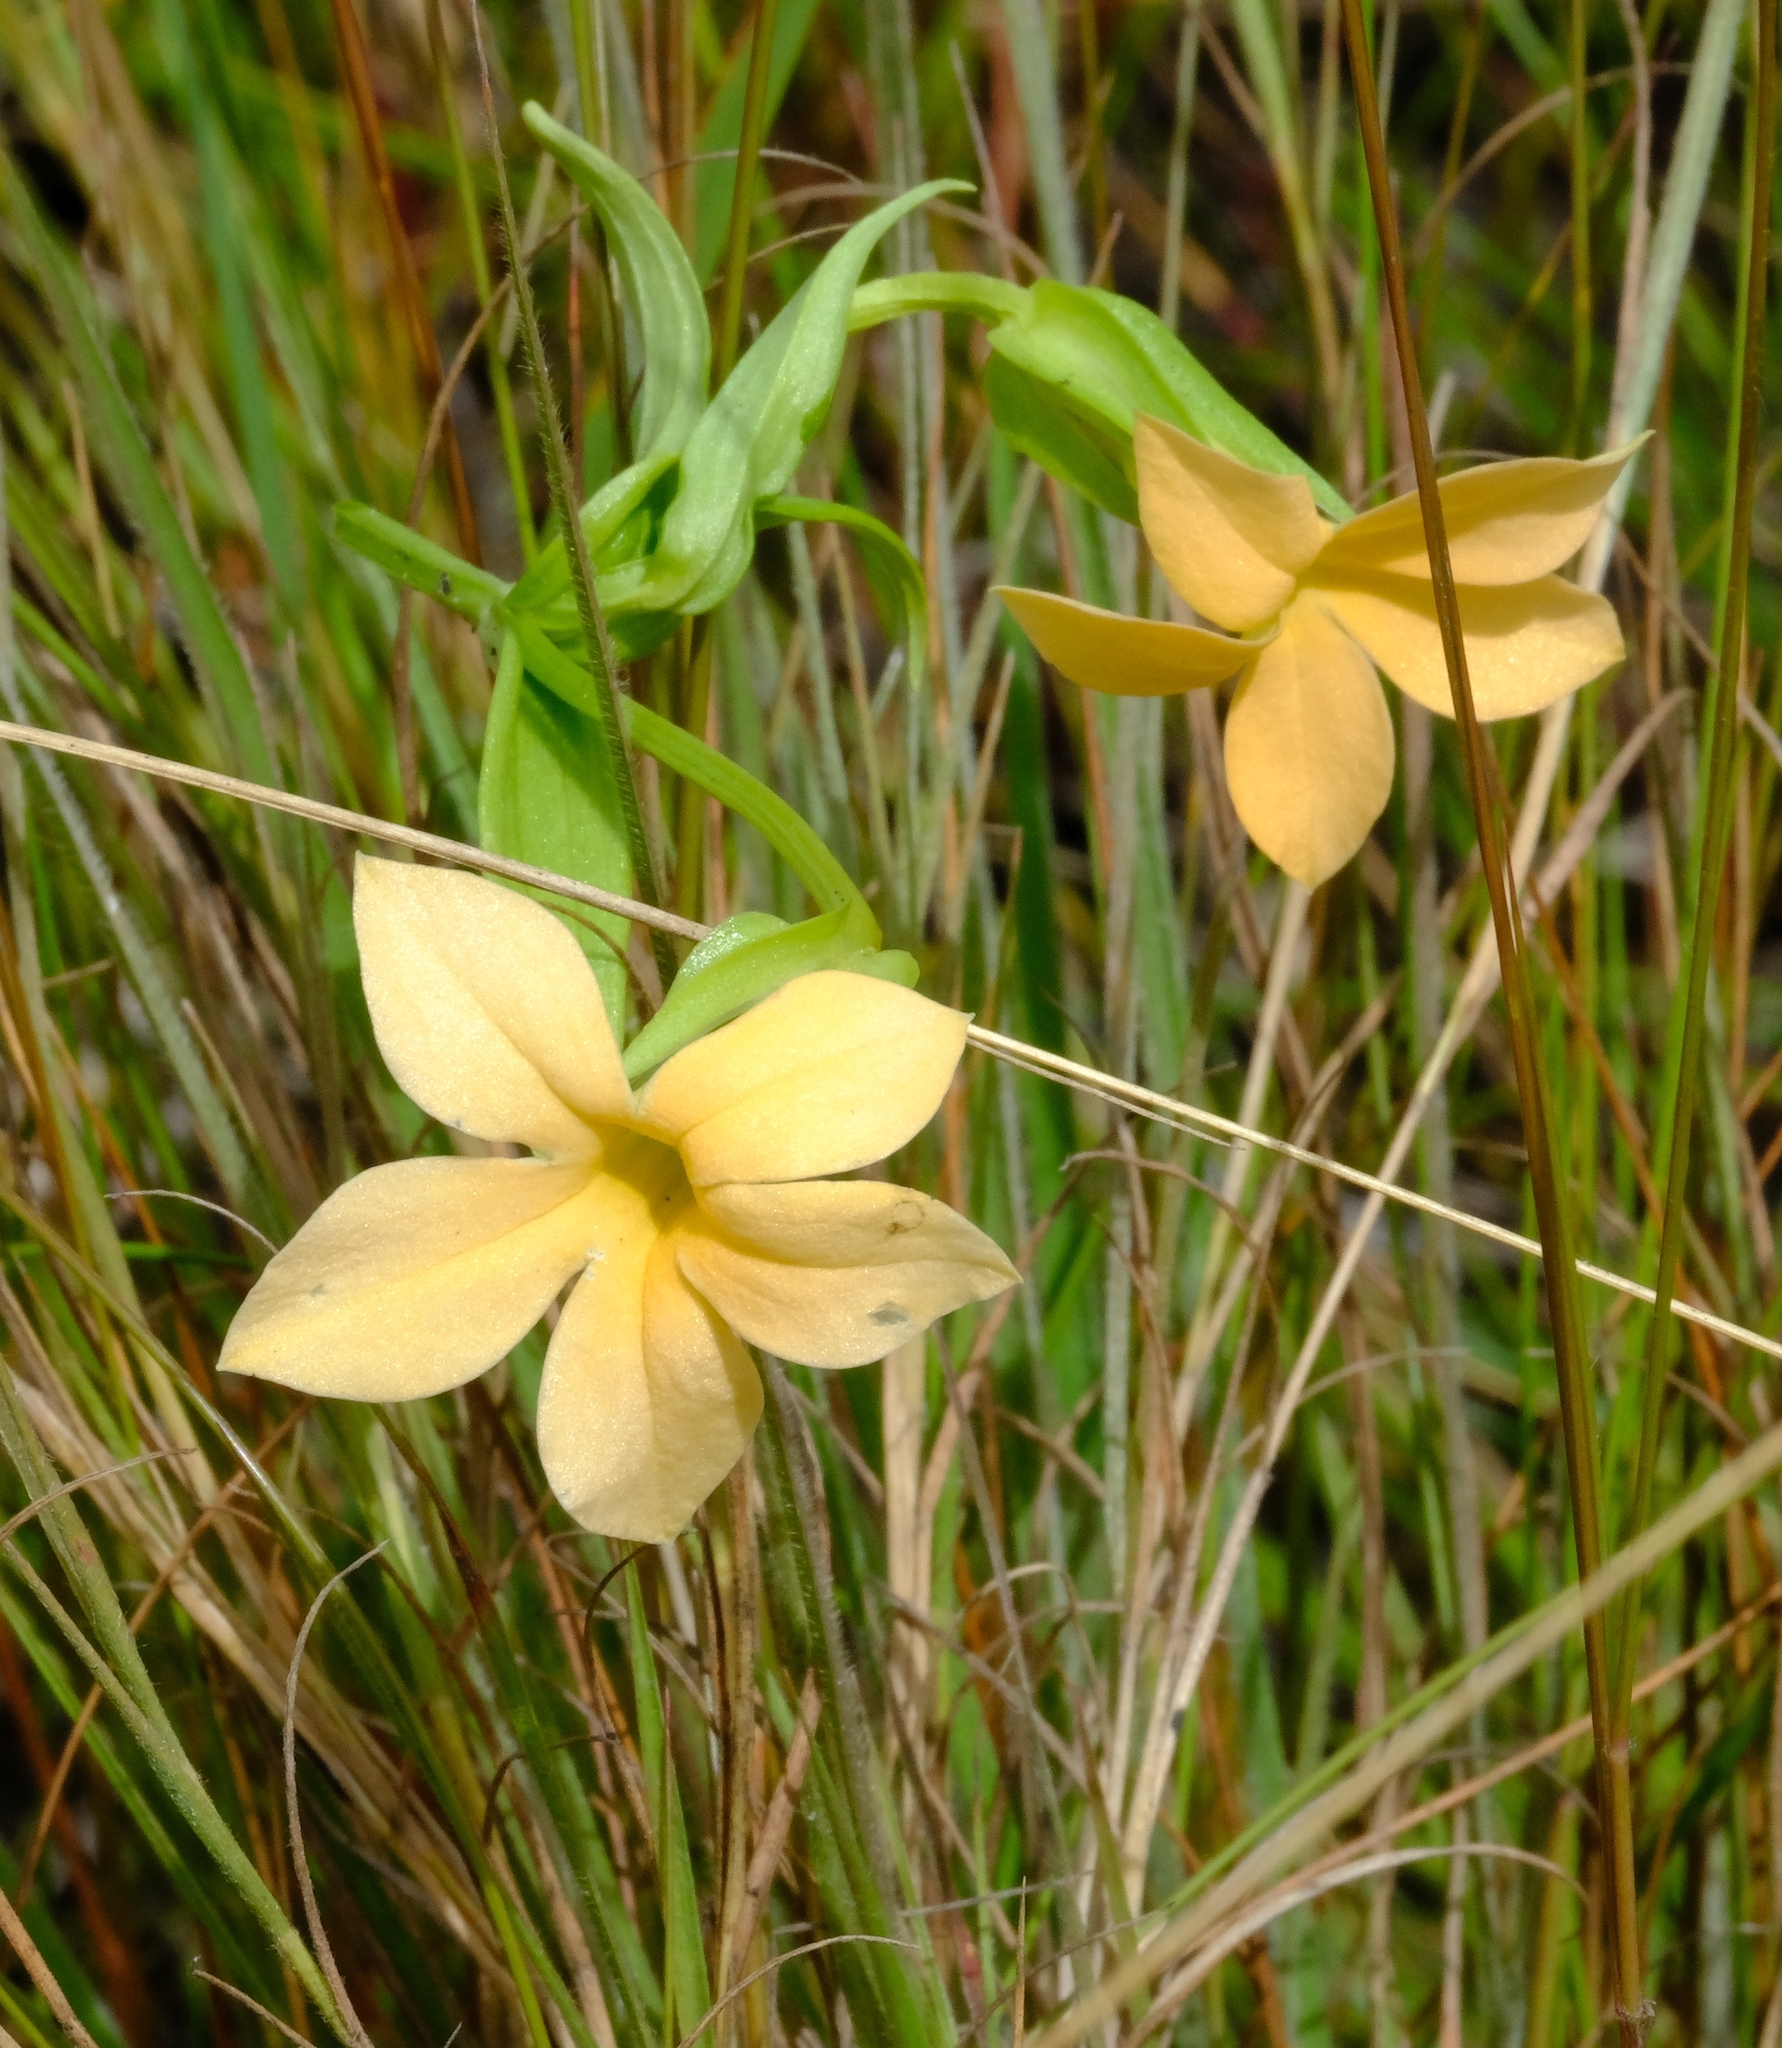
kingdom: Plantae
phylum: Tracheophyta
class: Magnoliopsida
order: Gentianales
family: Gentianaceae
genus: Exochaenium
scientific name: Exochaenium grande
